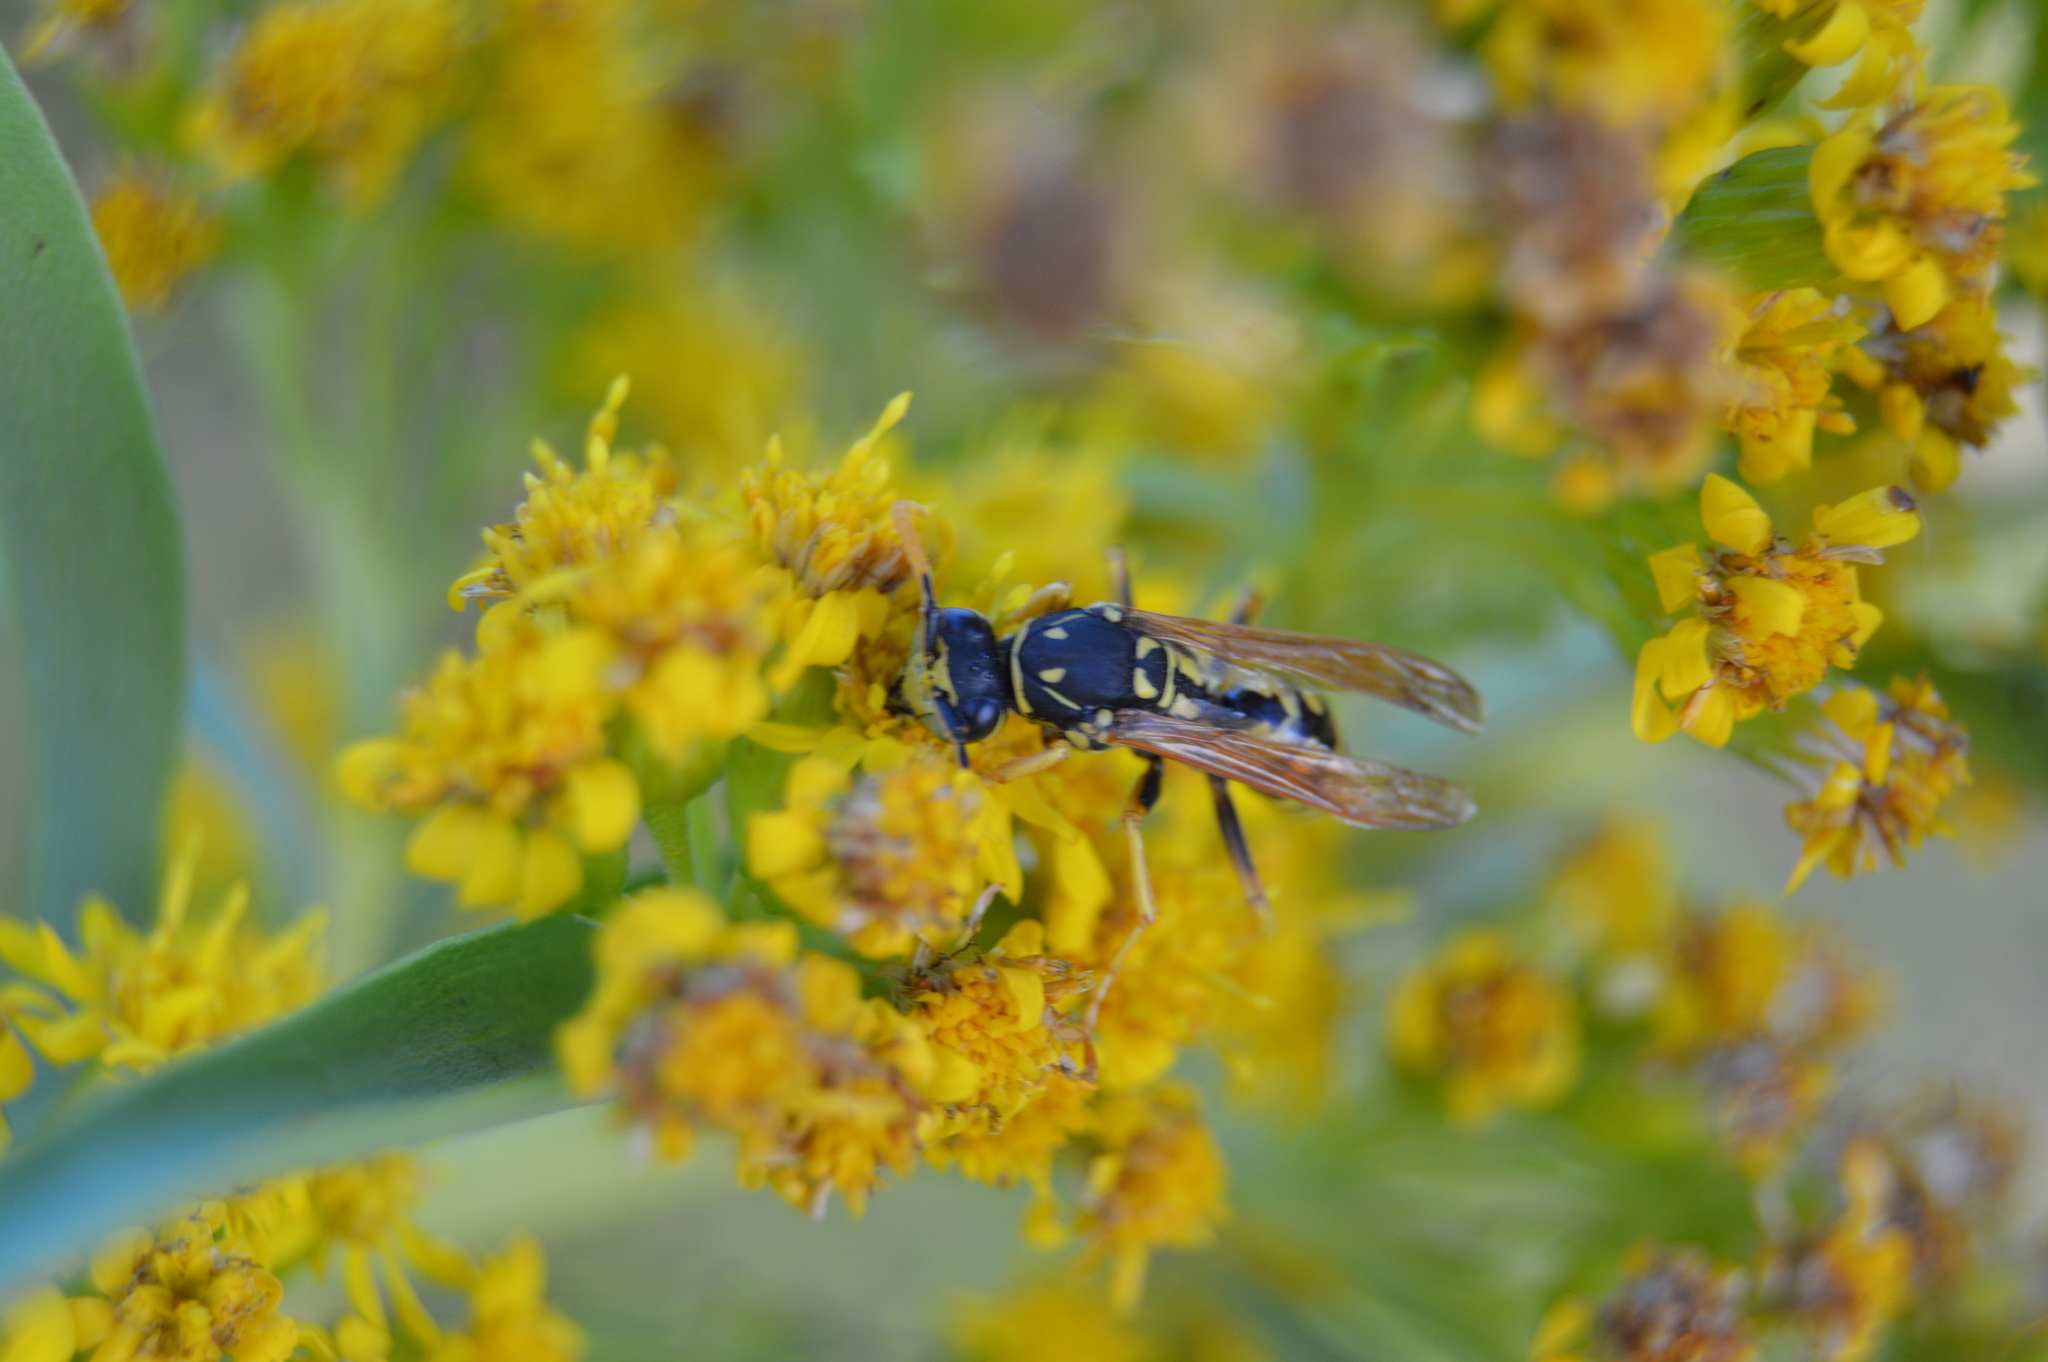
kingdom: Animalia
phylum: Arthropoda
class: Insecta
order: Hymenoptera
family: Eumenidae
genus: Polistes
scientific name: Polistes dominula
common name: Paper wasp
